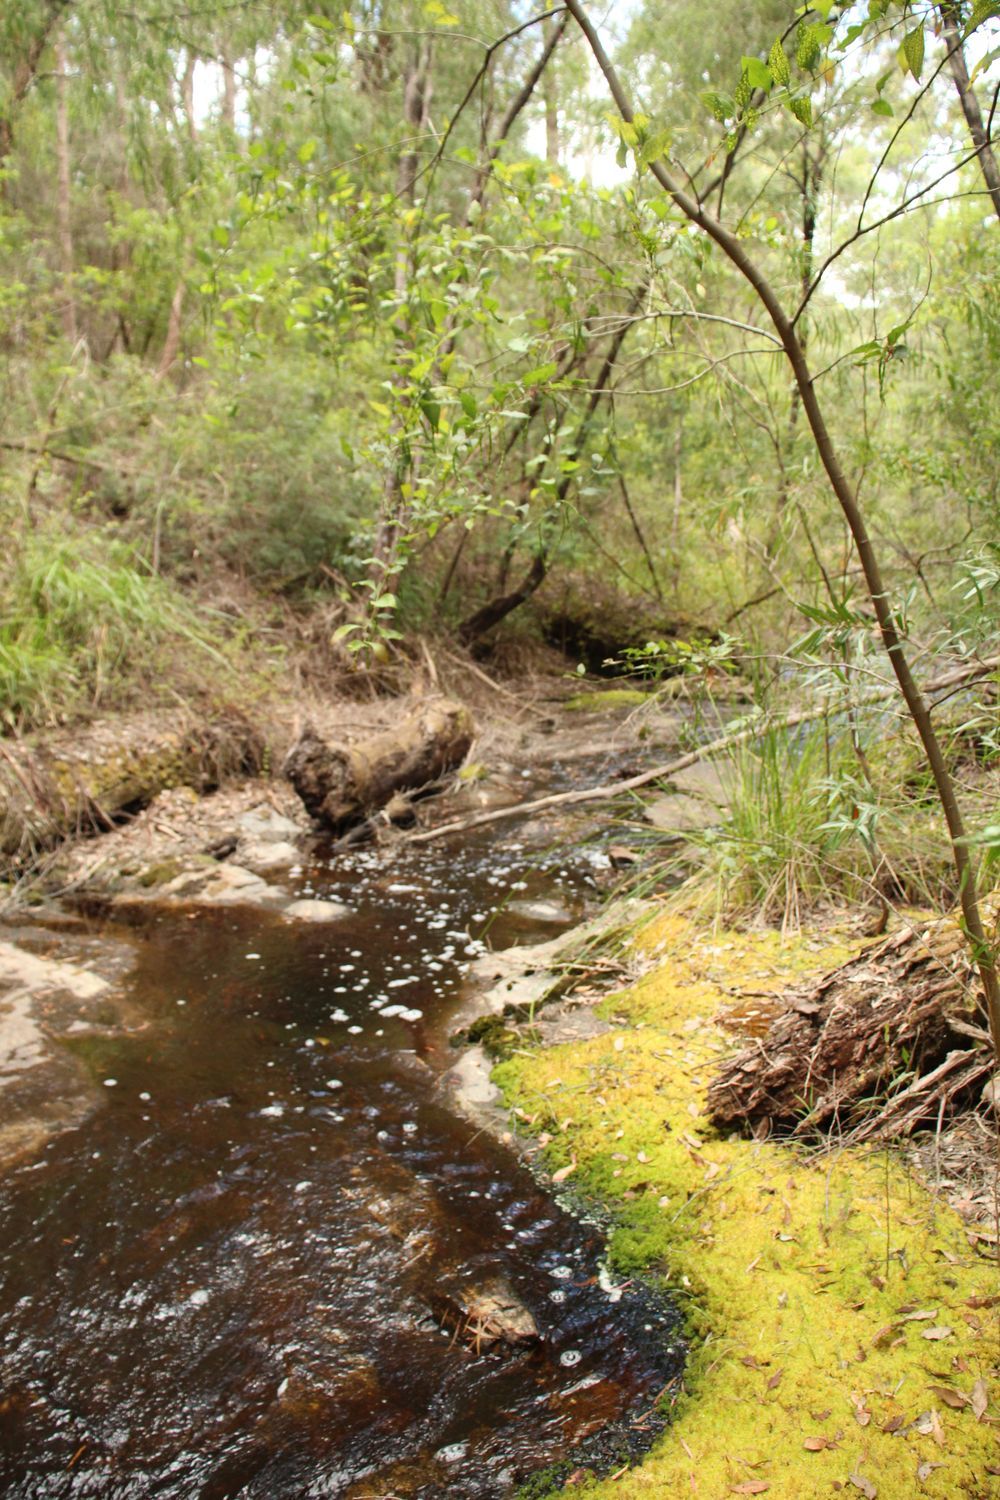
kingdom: Plantae
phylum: Bryophyta
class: Sphagnopsida
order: Sphagnales
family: Sphagnaceae
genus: Sphagnum
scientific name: Sphagnum novozelandicum
